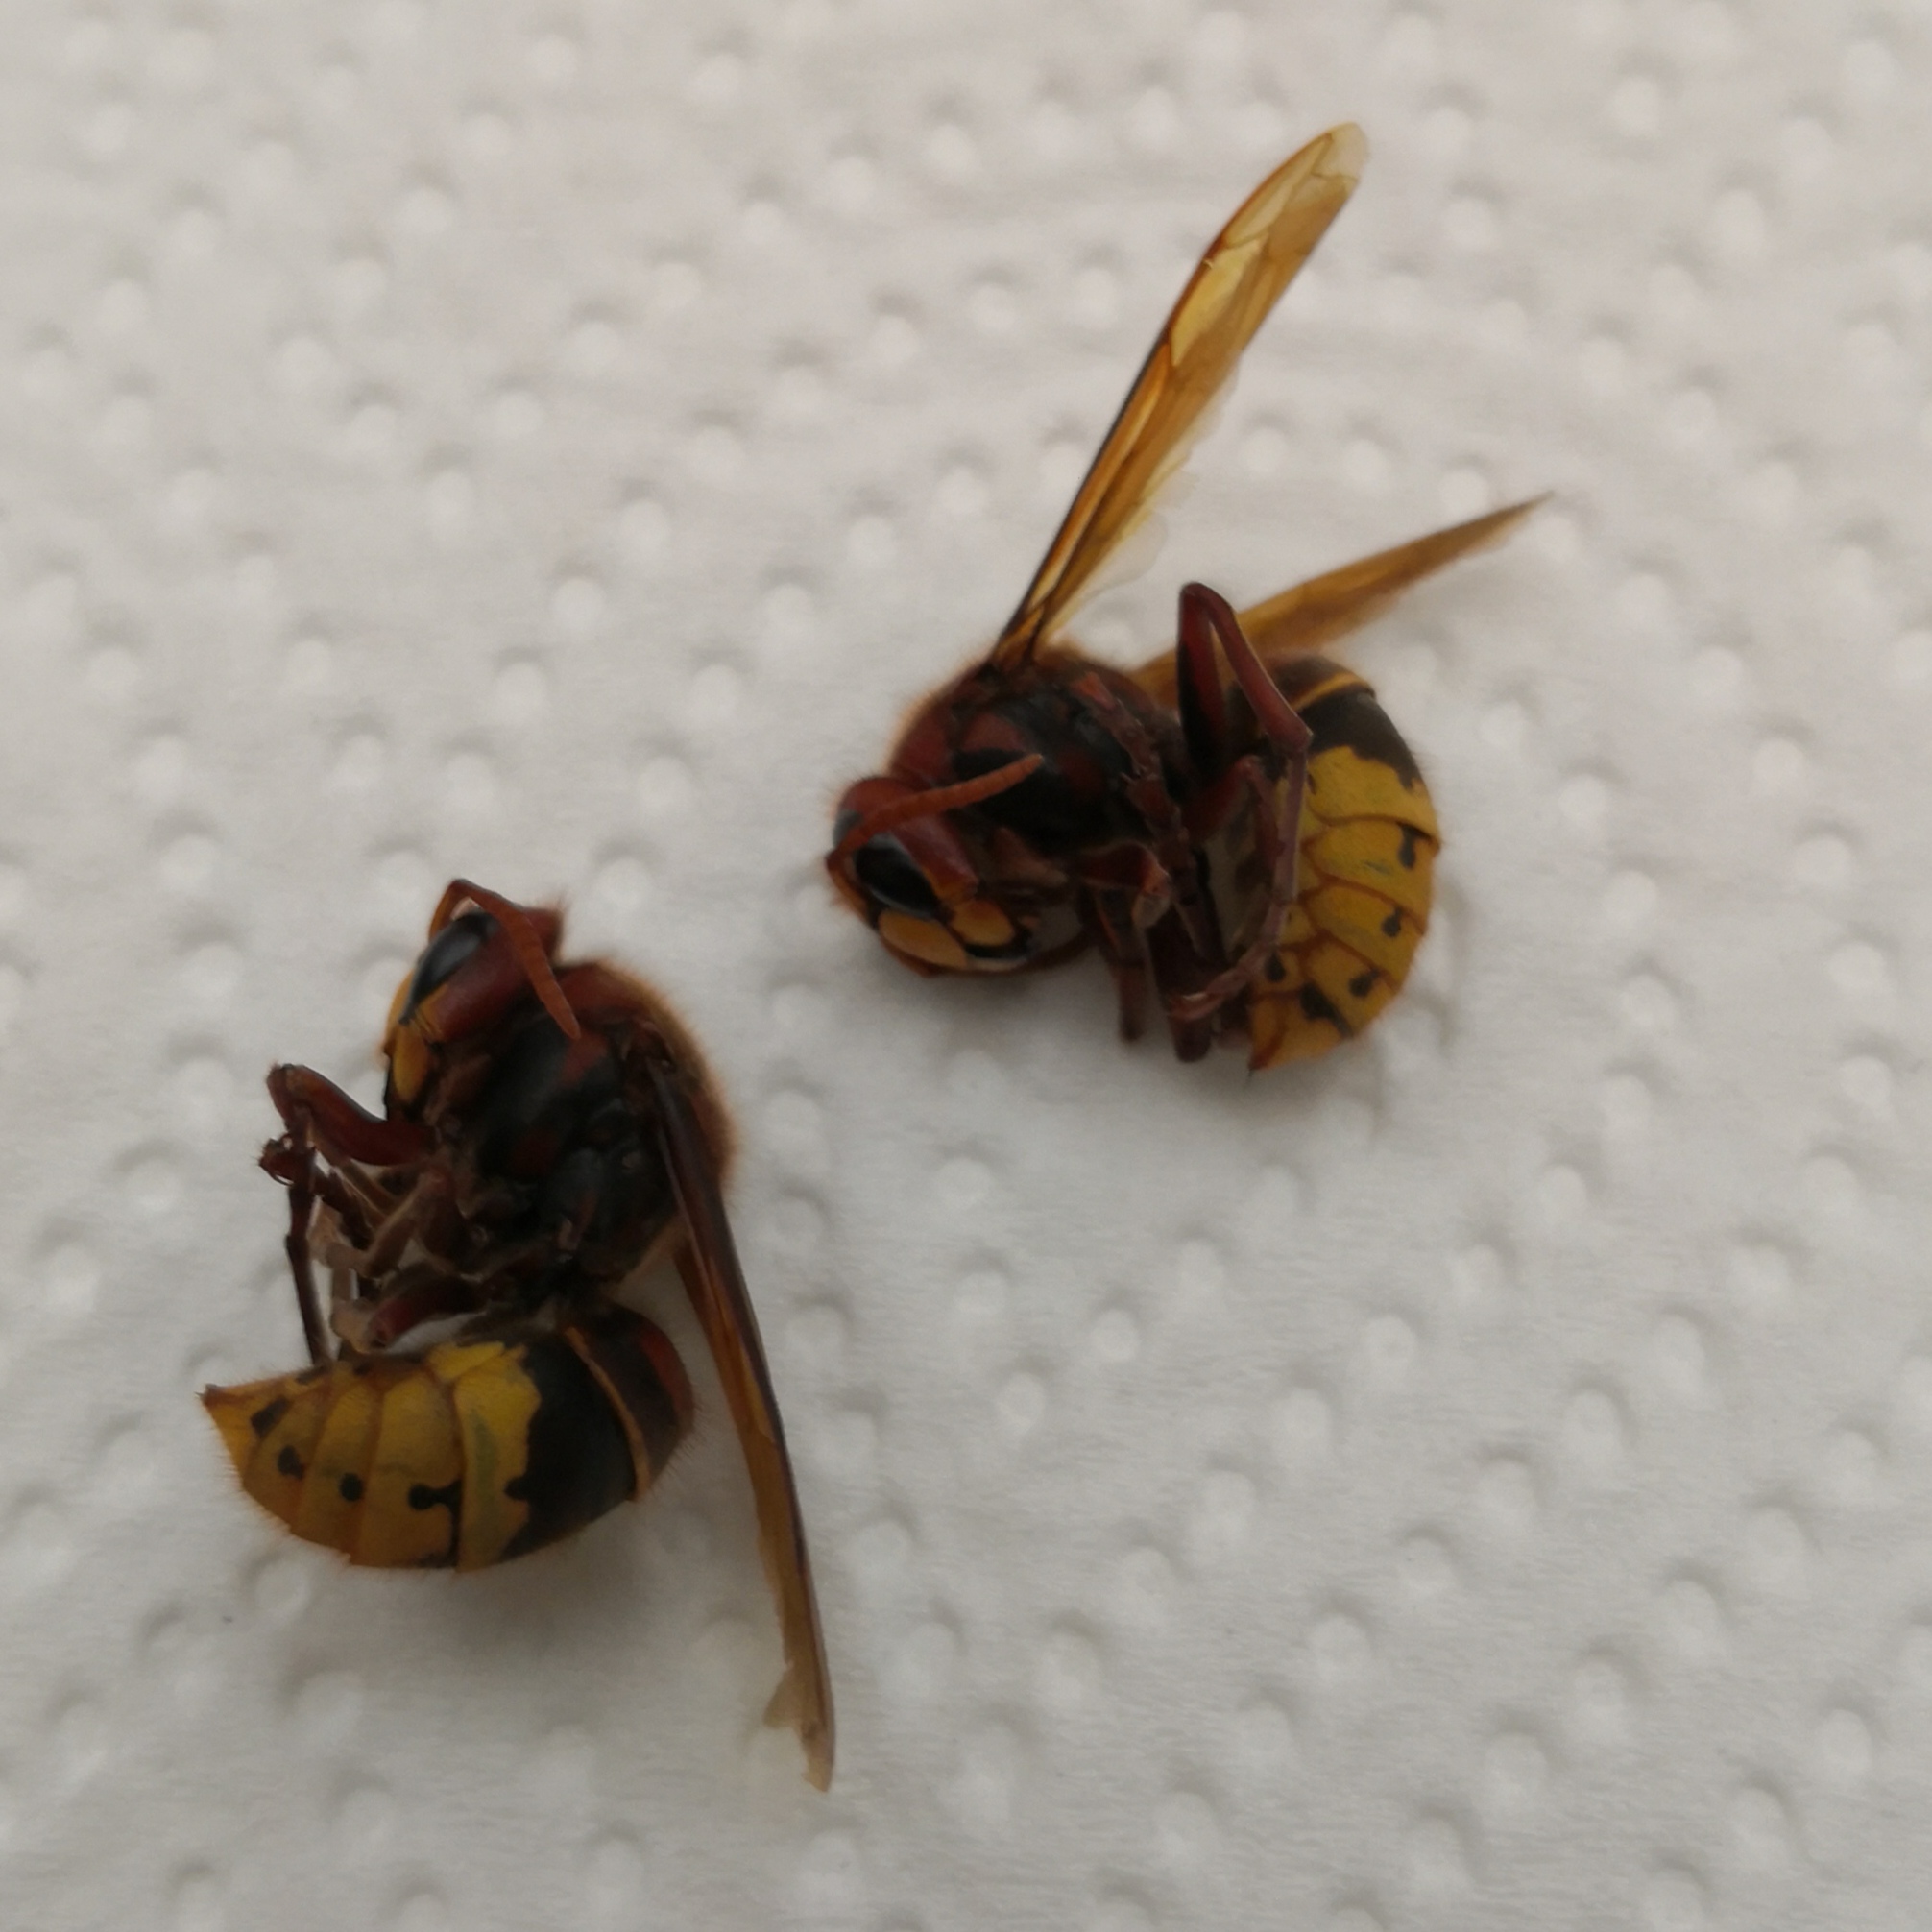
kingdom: Animalia
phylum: Arthropoda
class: Insecta
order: Hymenoptera
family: Vespidae
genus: Vespa
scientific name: Vespa crabro
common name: Hornet
